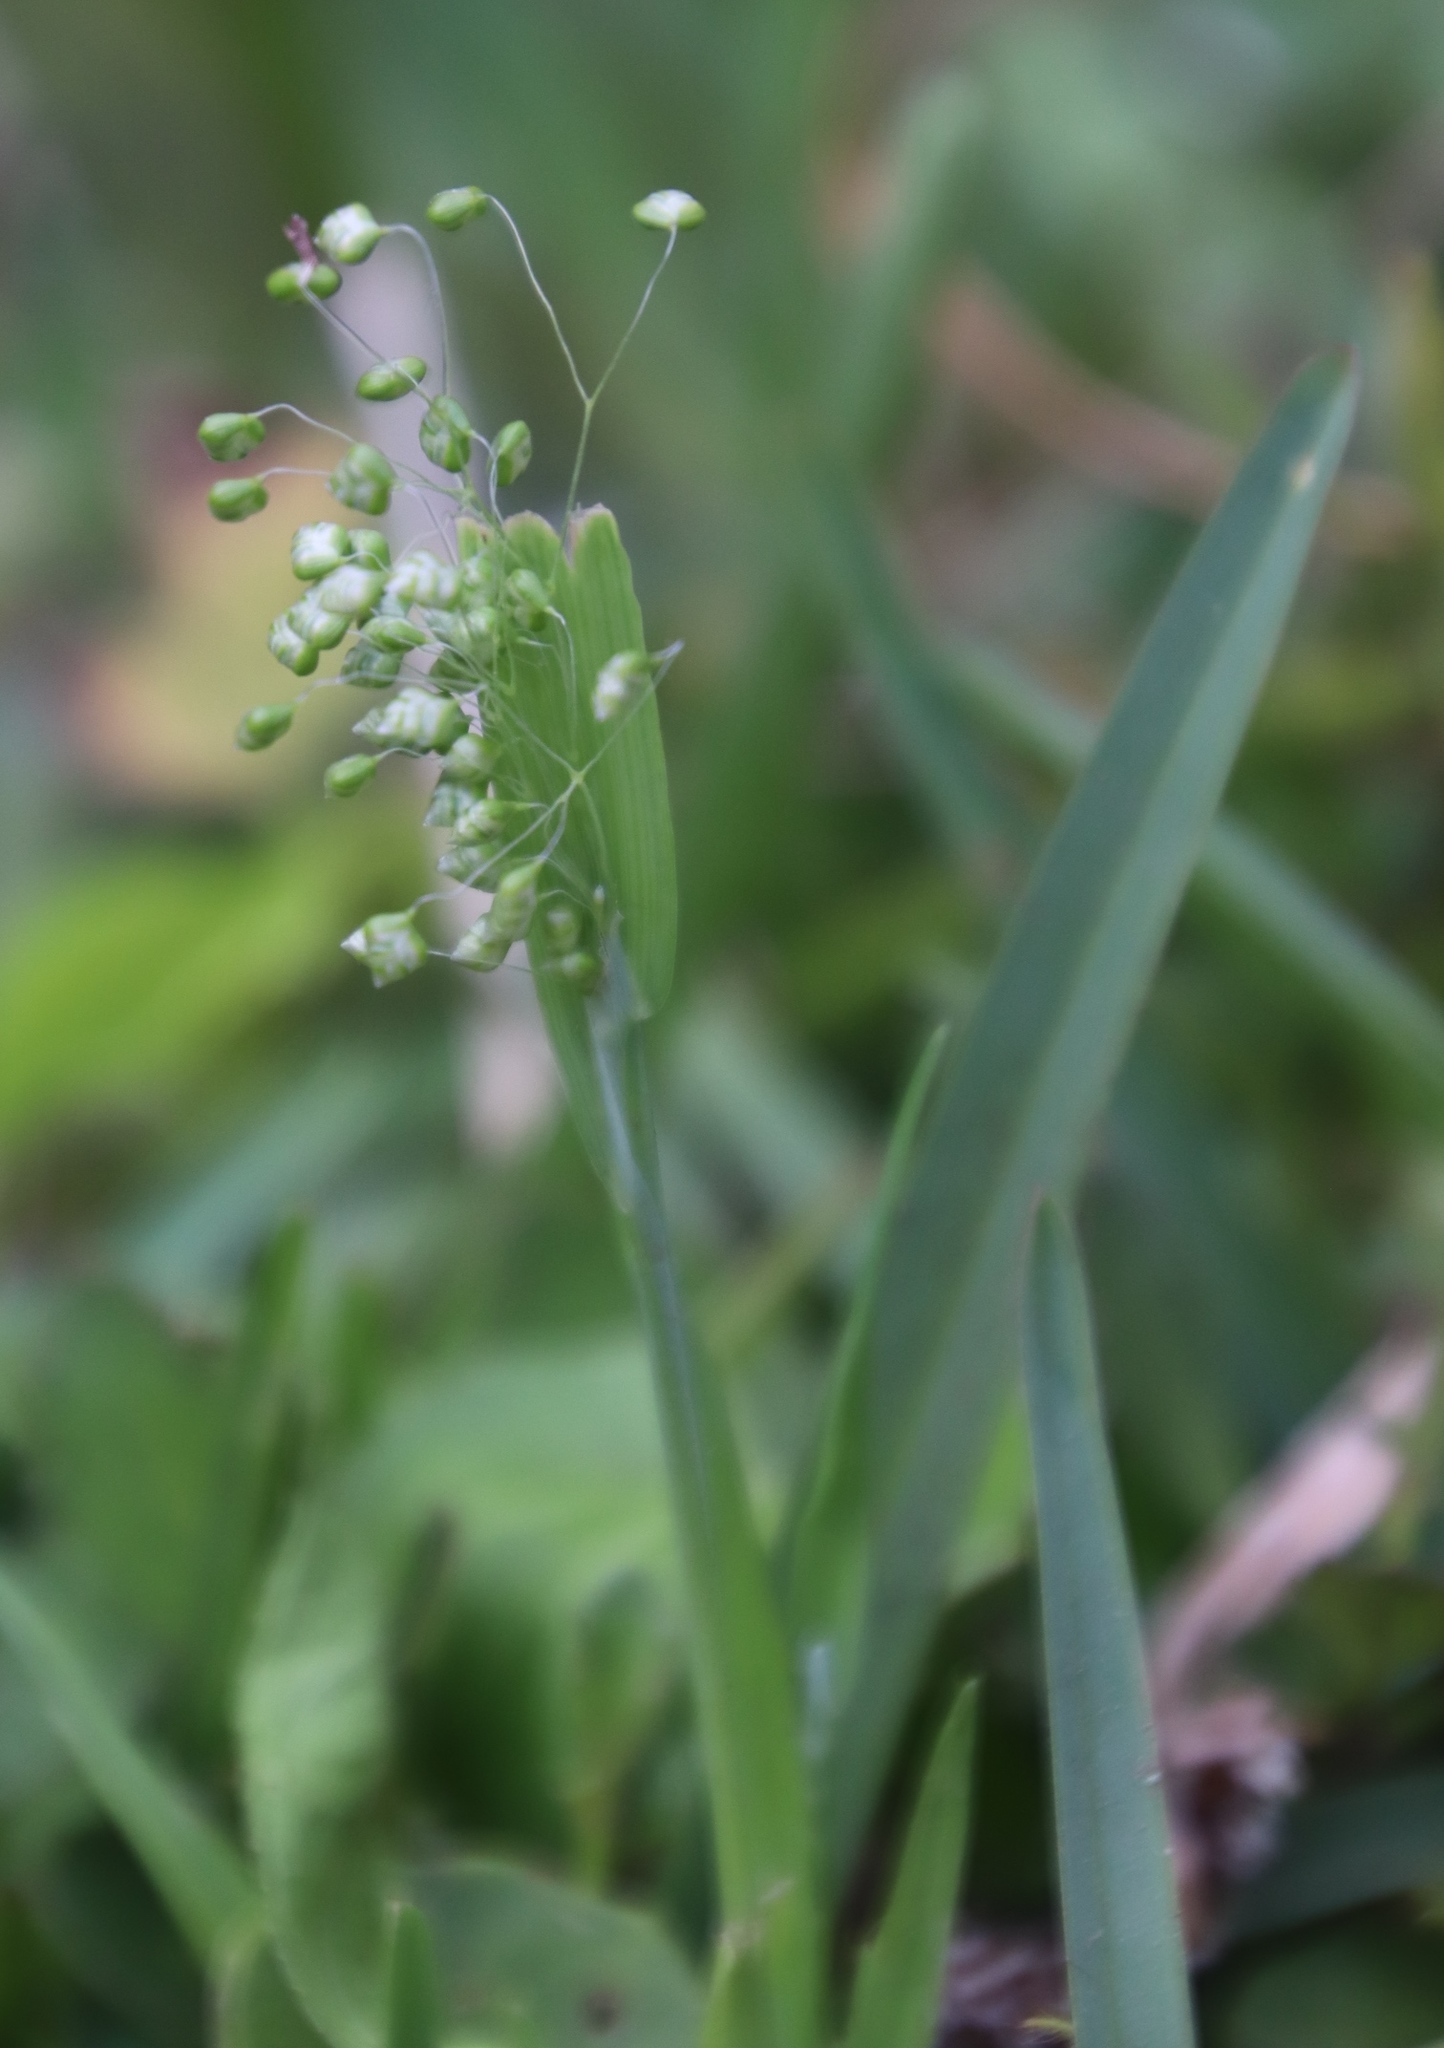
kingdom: Plantae
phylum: Tracheophyta
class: Liliopsida
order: Poales
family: Poaceae
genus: Briza
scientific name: Briza minor
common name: Lesser quaking-grass
